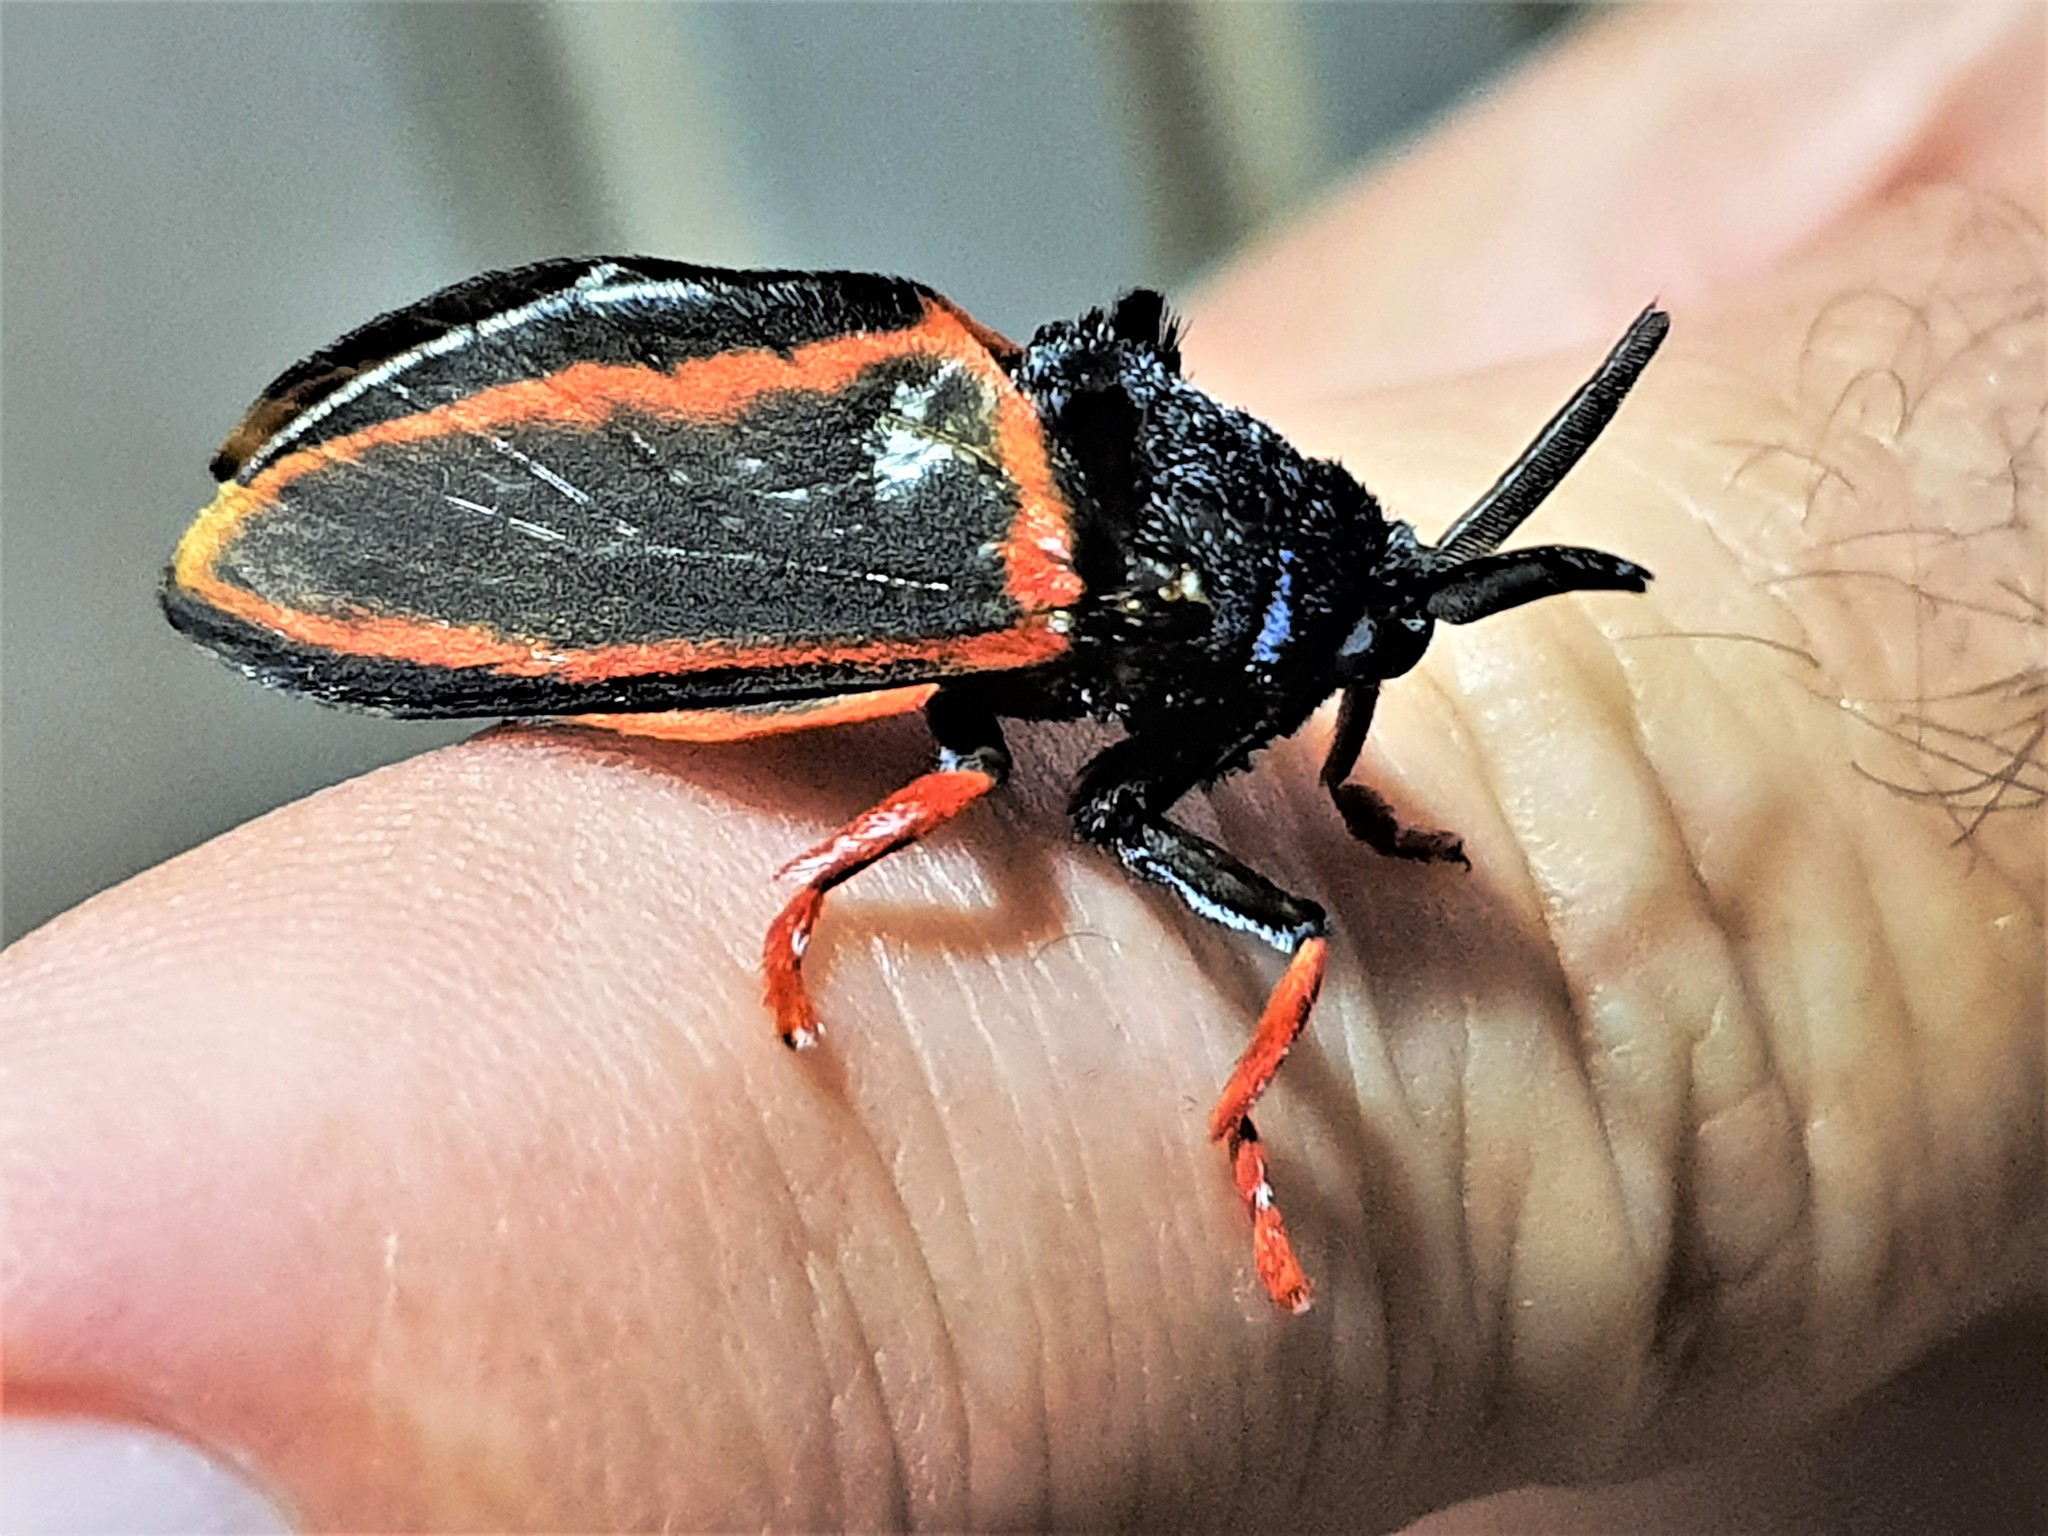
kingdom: Animalia
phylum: Arthropoda
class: Insecta
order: Lepidoptera
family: Megalopygidae
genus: Edebessa
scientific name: Edebessa circumcincta
